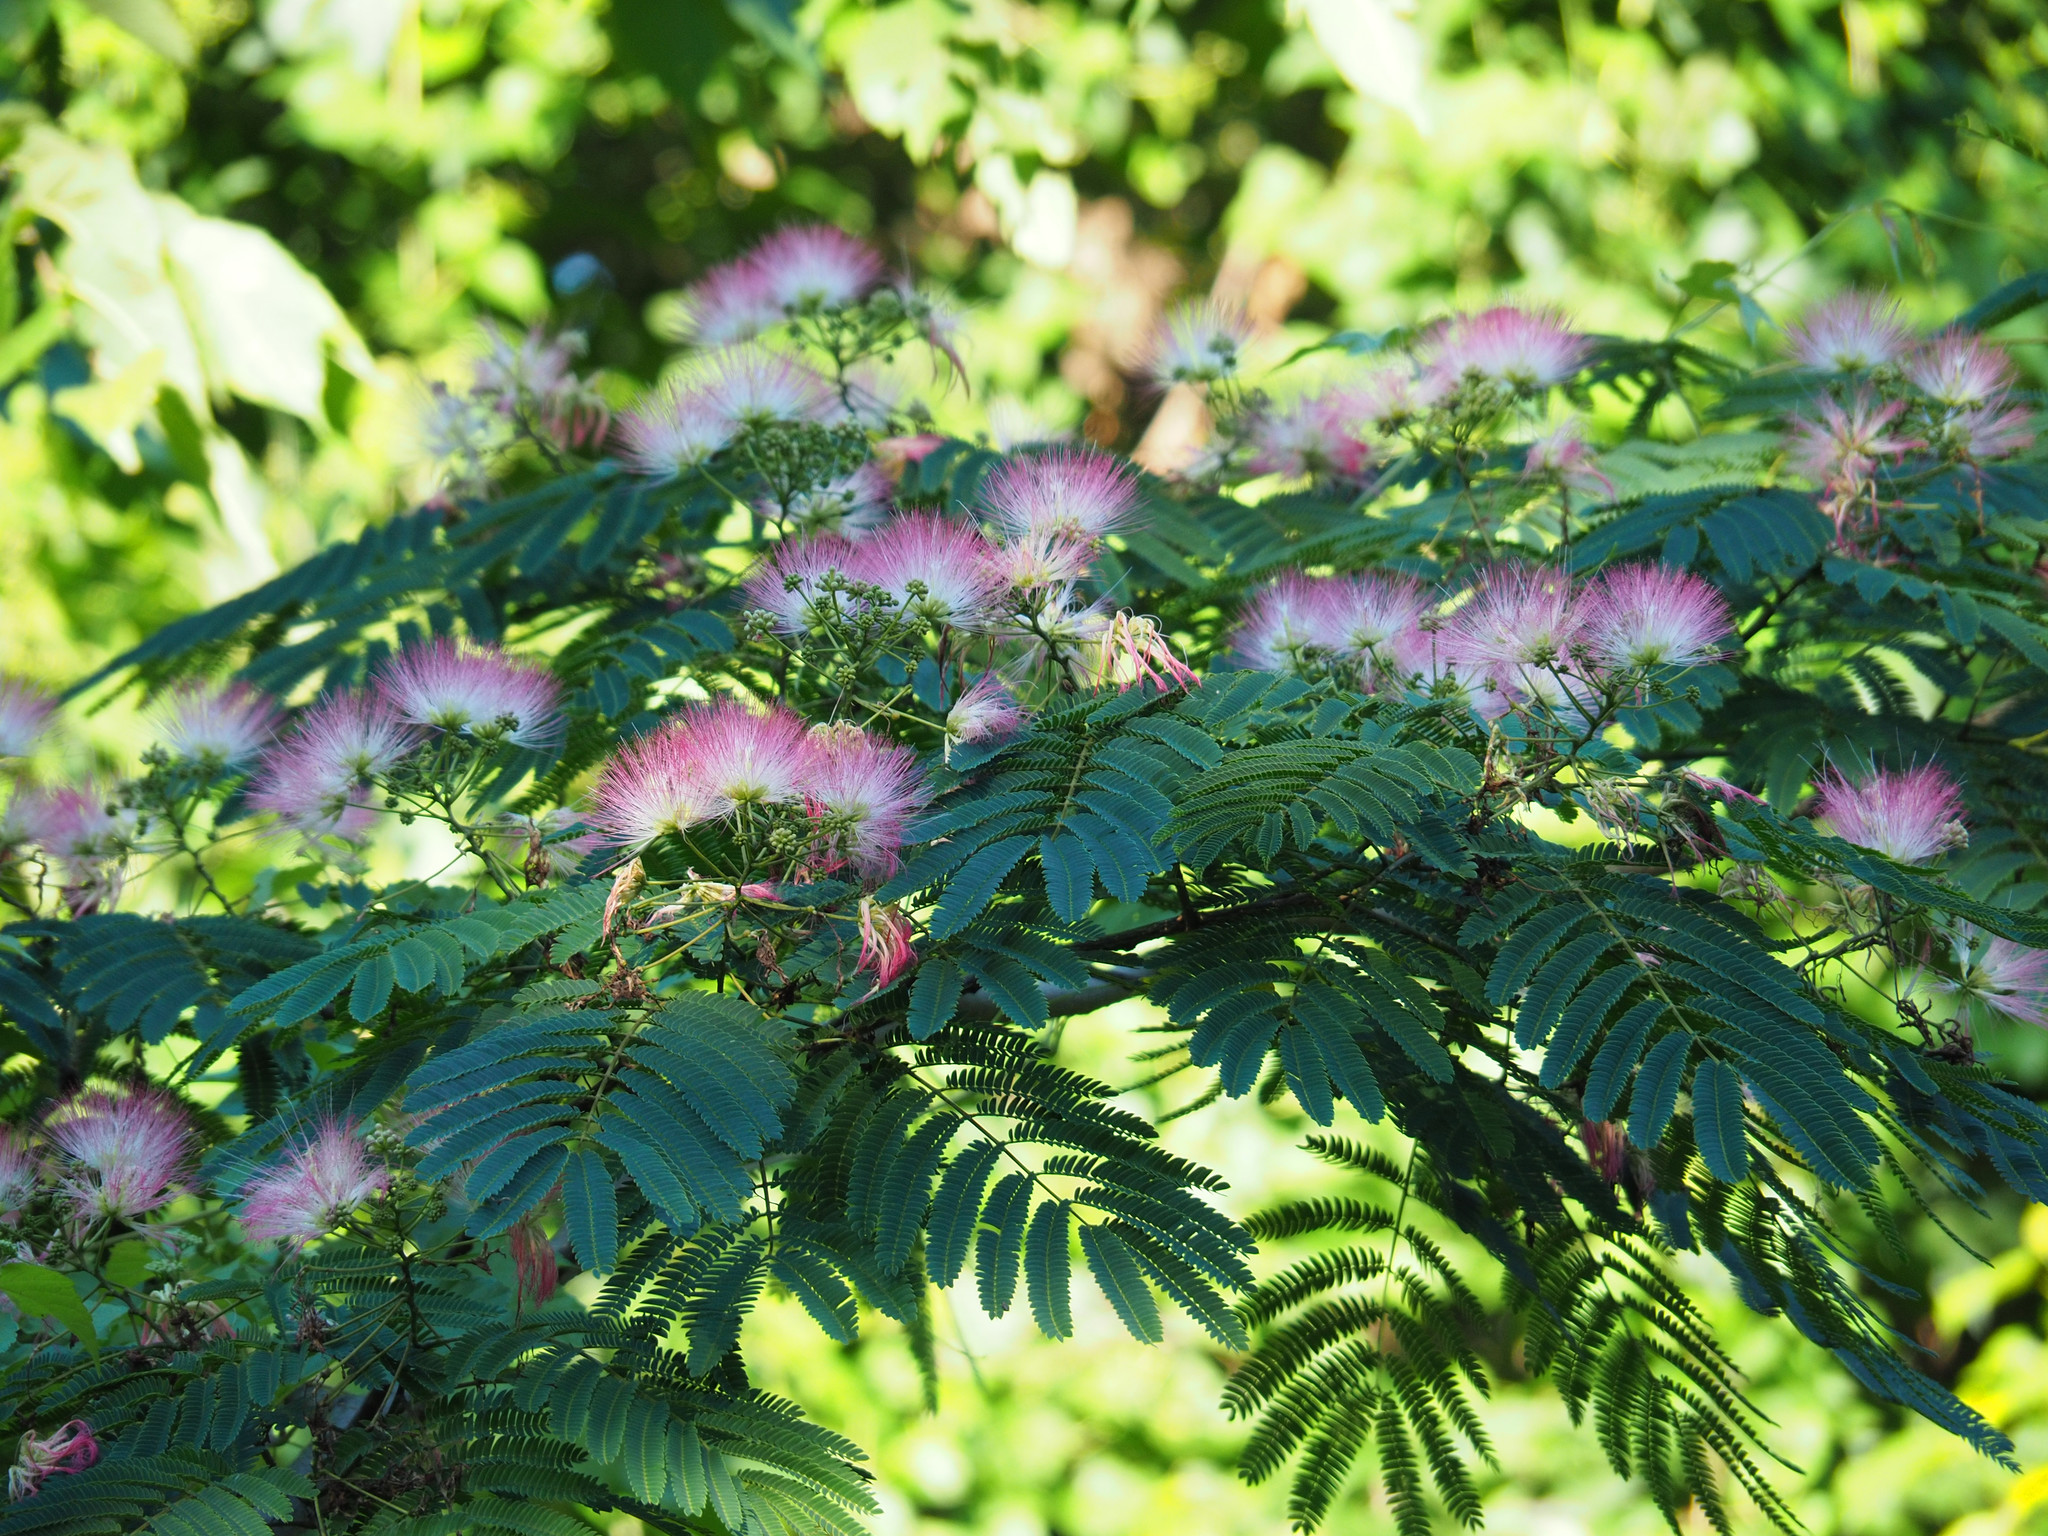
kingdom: Plantae
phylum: Tracheophyta
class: Magnoliopsida
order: Fabales
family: Fabaceae
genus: Albizia
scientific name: Albizia julibrissin
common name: Silktree
